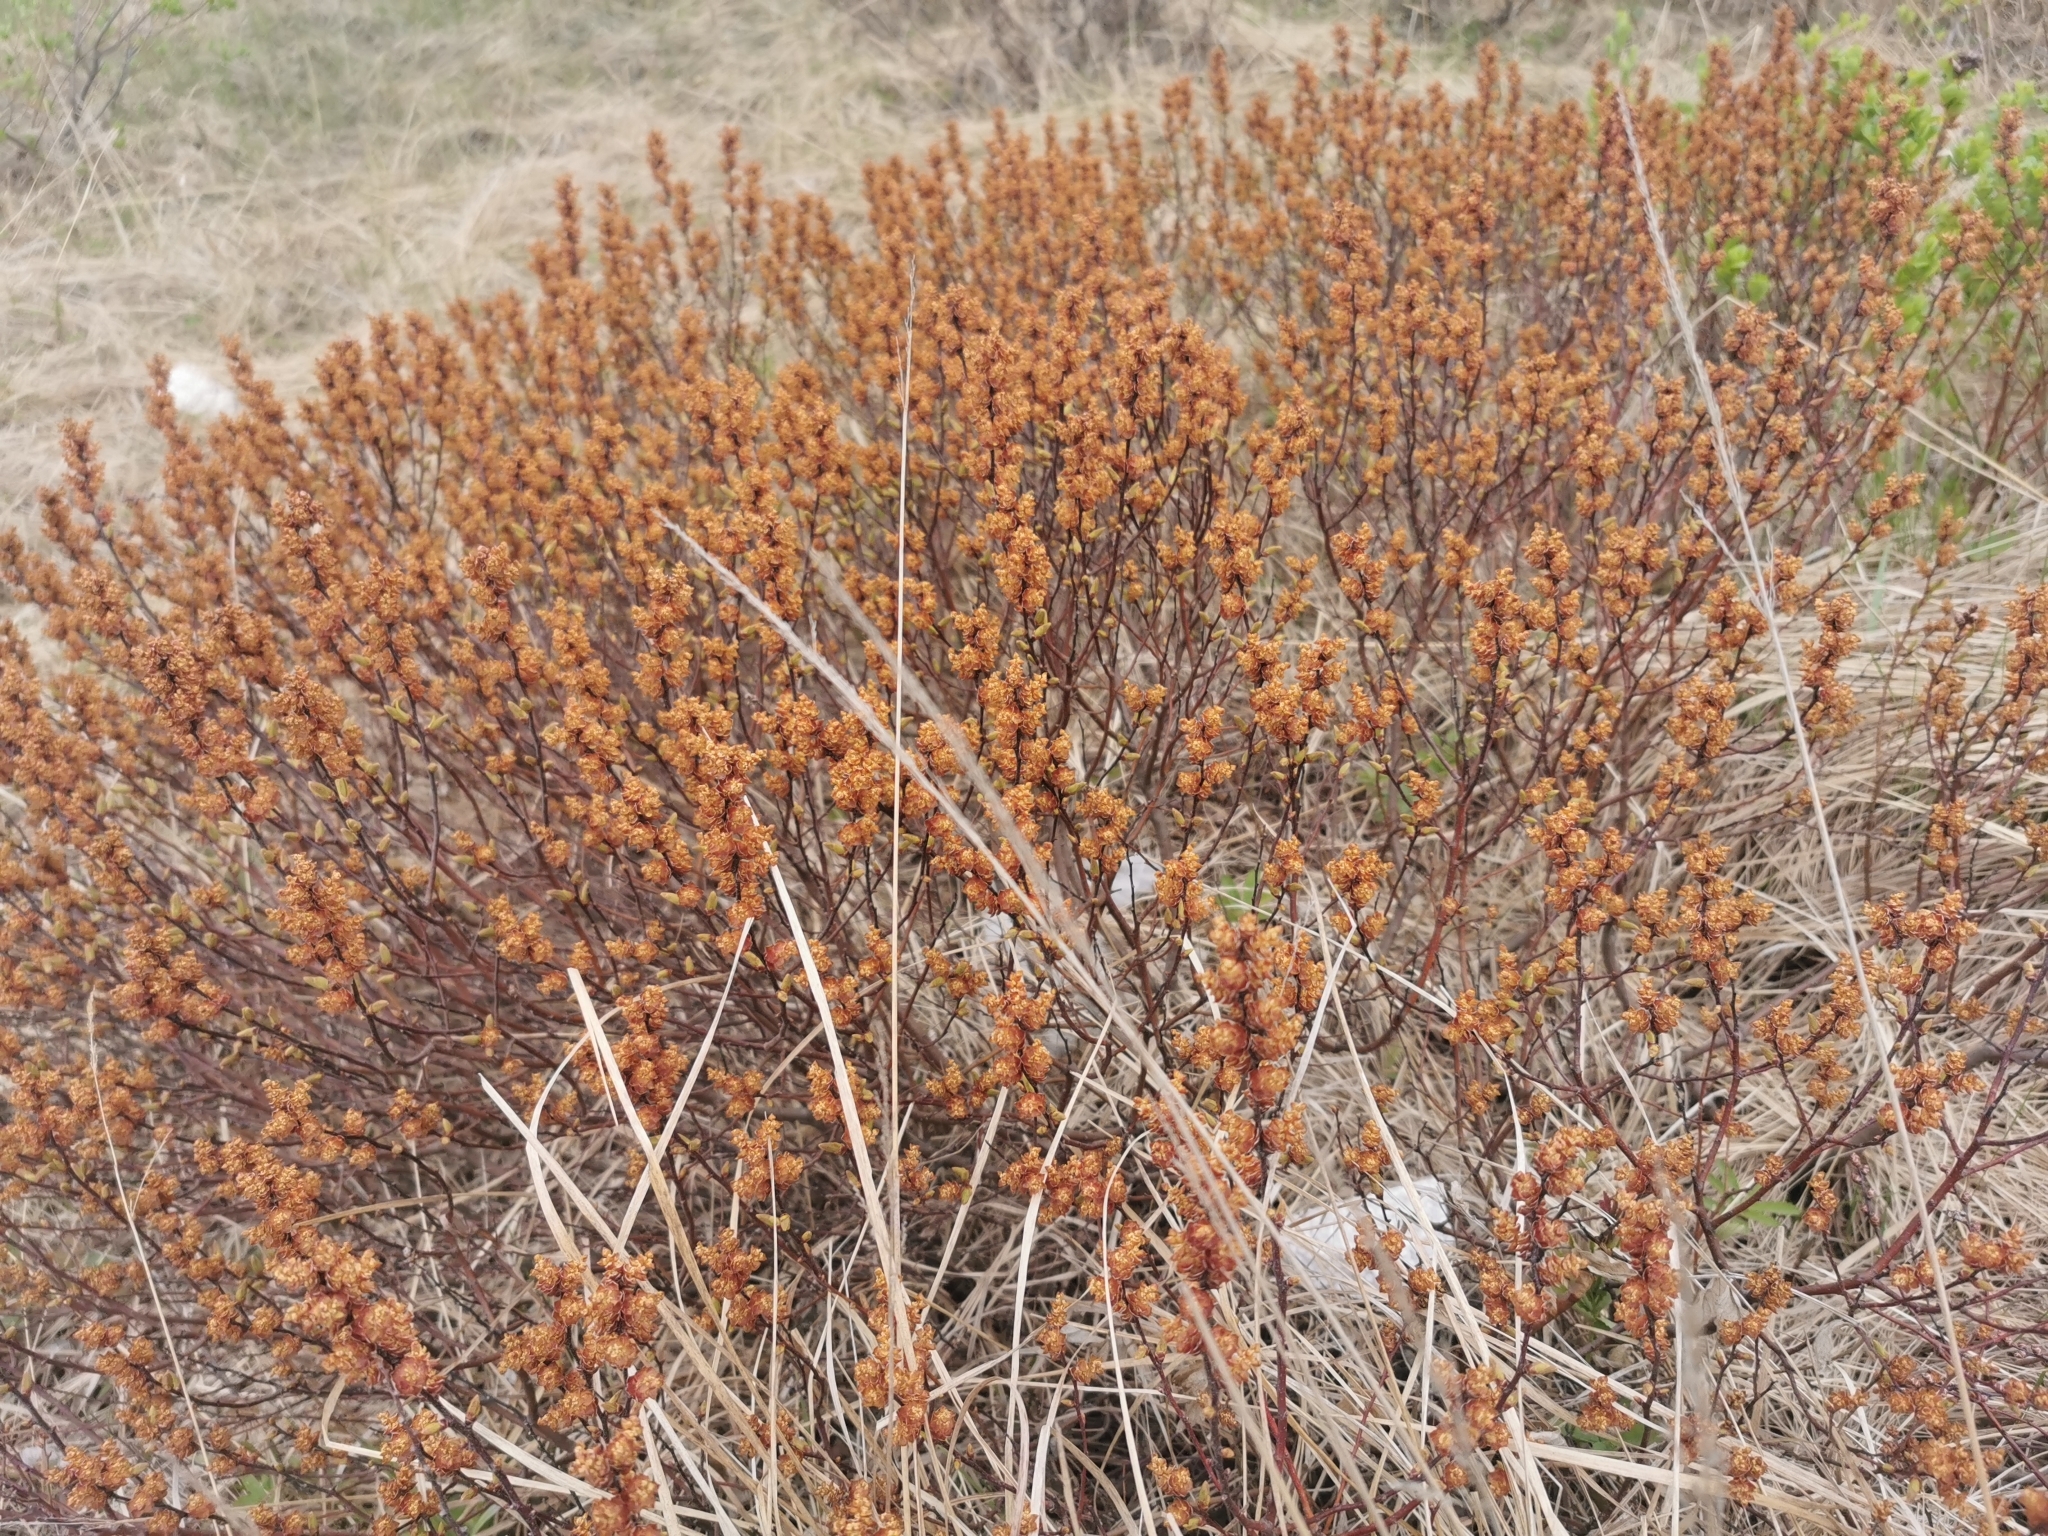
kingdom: Plantae
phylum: Tracheophyta
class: Magnoliopsida
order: Fagales
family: Myricaceae
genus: Myrica
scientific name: Myrica gale
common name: Sweet gale
